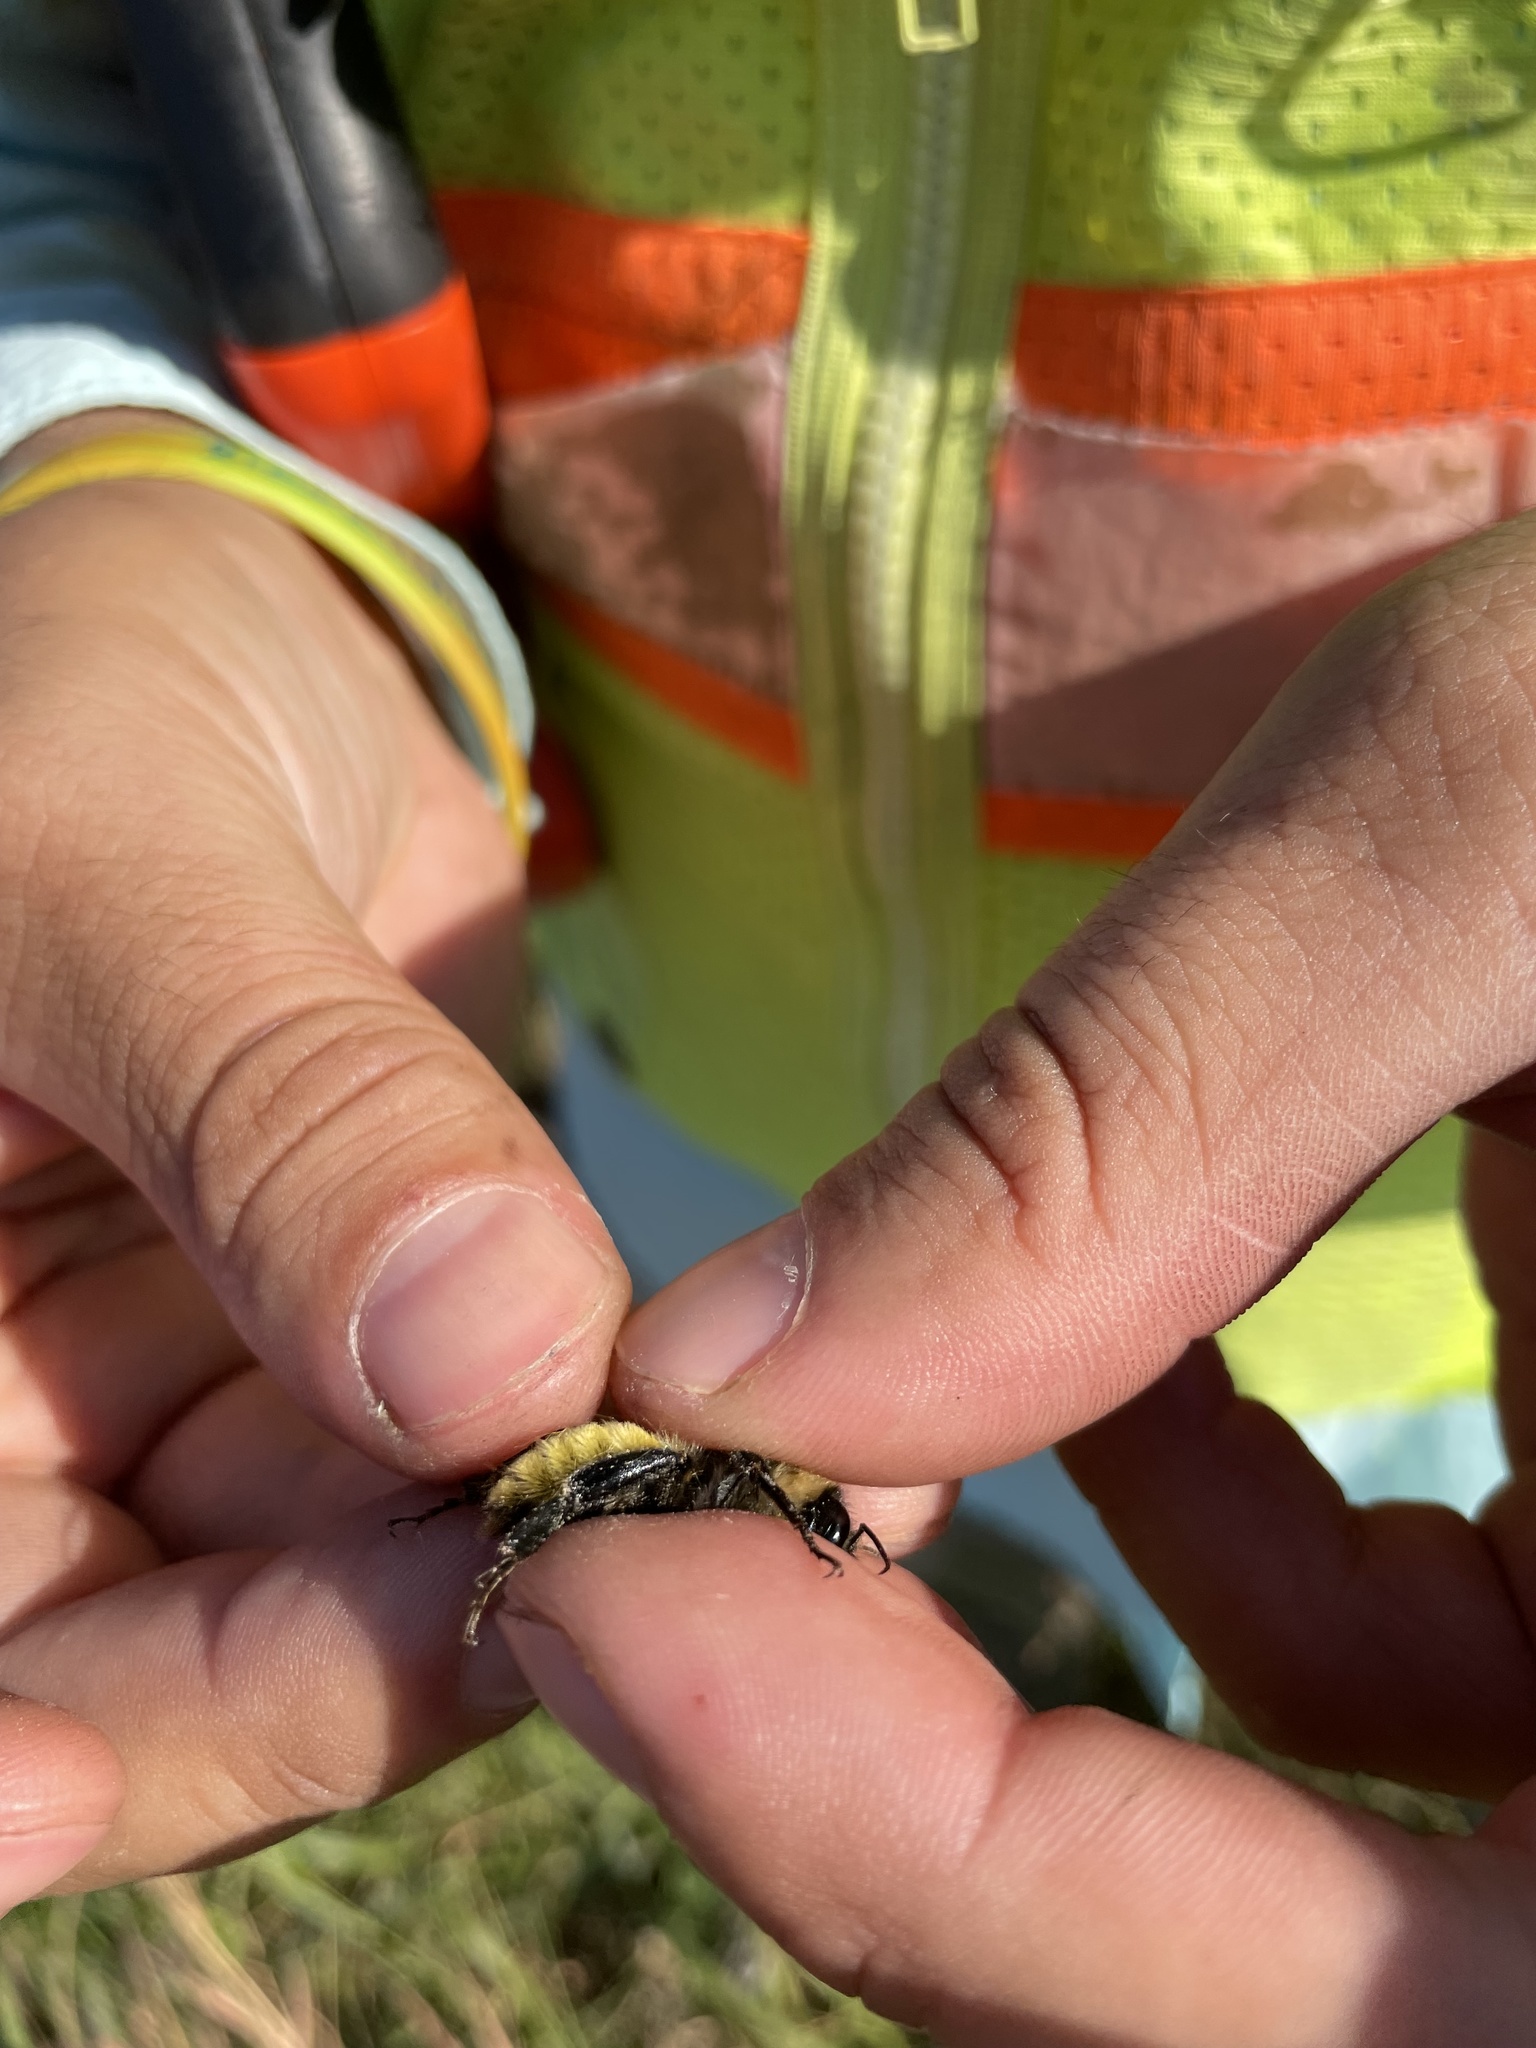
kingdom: Animalia
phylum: Arthropoda
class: Insecta
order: Hymenoptera
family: Apidae
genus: Bombus
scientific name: Bombus pensylvanicus
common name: Bumble bee
